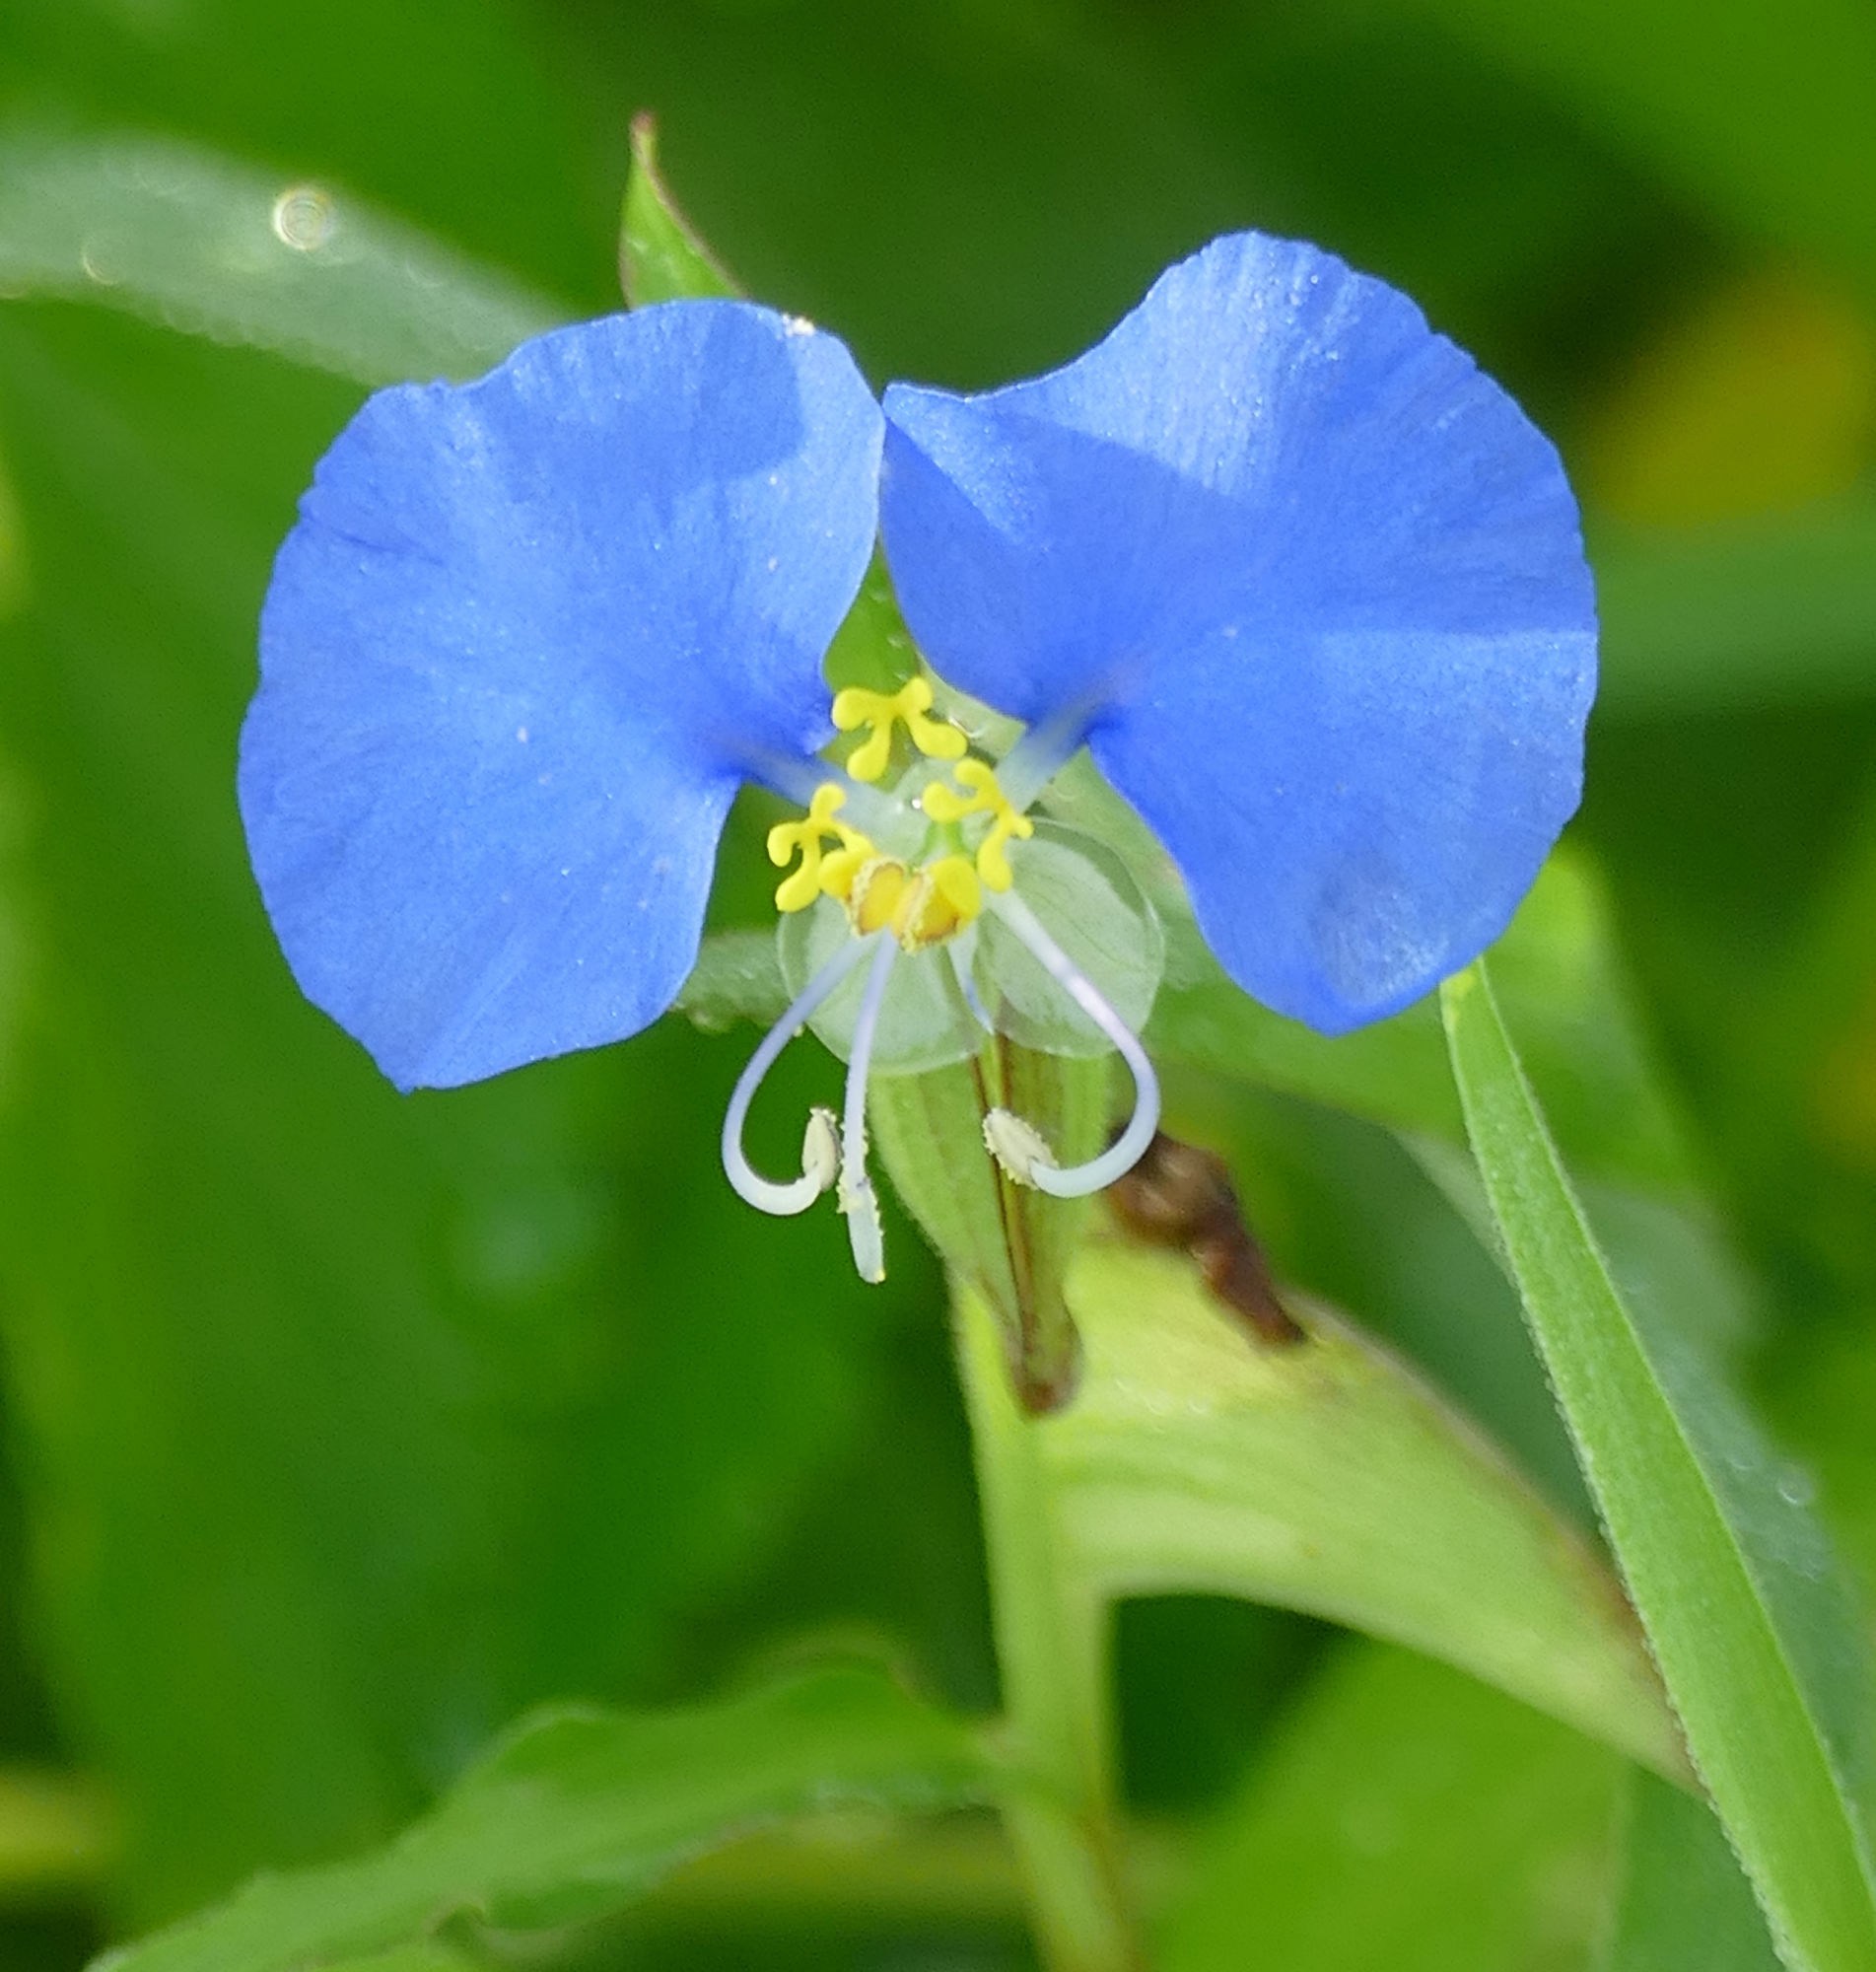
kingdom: Plantae
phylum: Tracheophyta
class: Liliopsida
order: Commelinales
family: Commelinaceae
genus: Commelina
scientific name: Commelina erecta
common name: Blousel blommetjie
